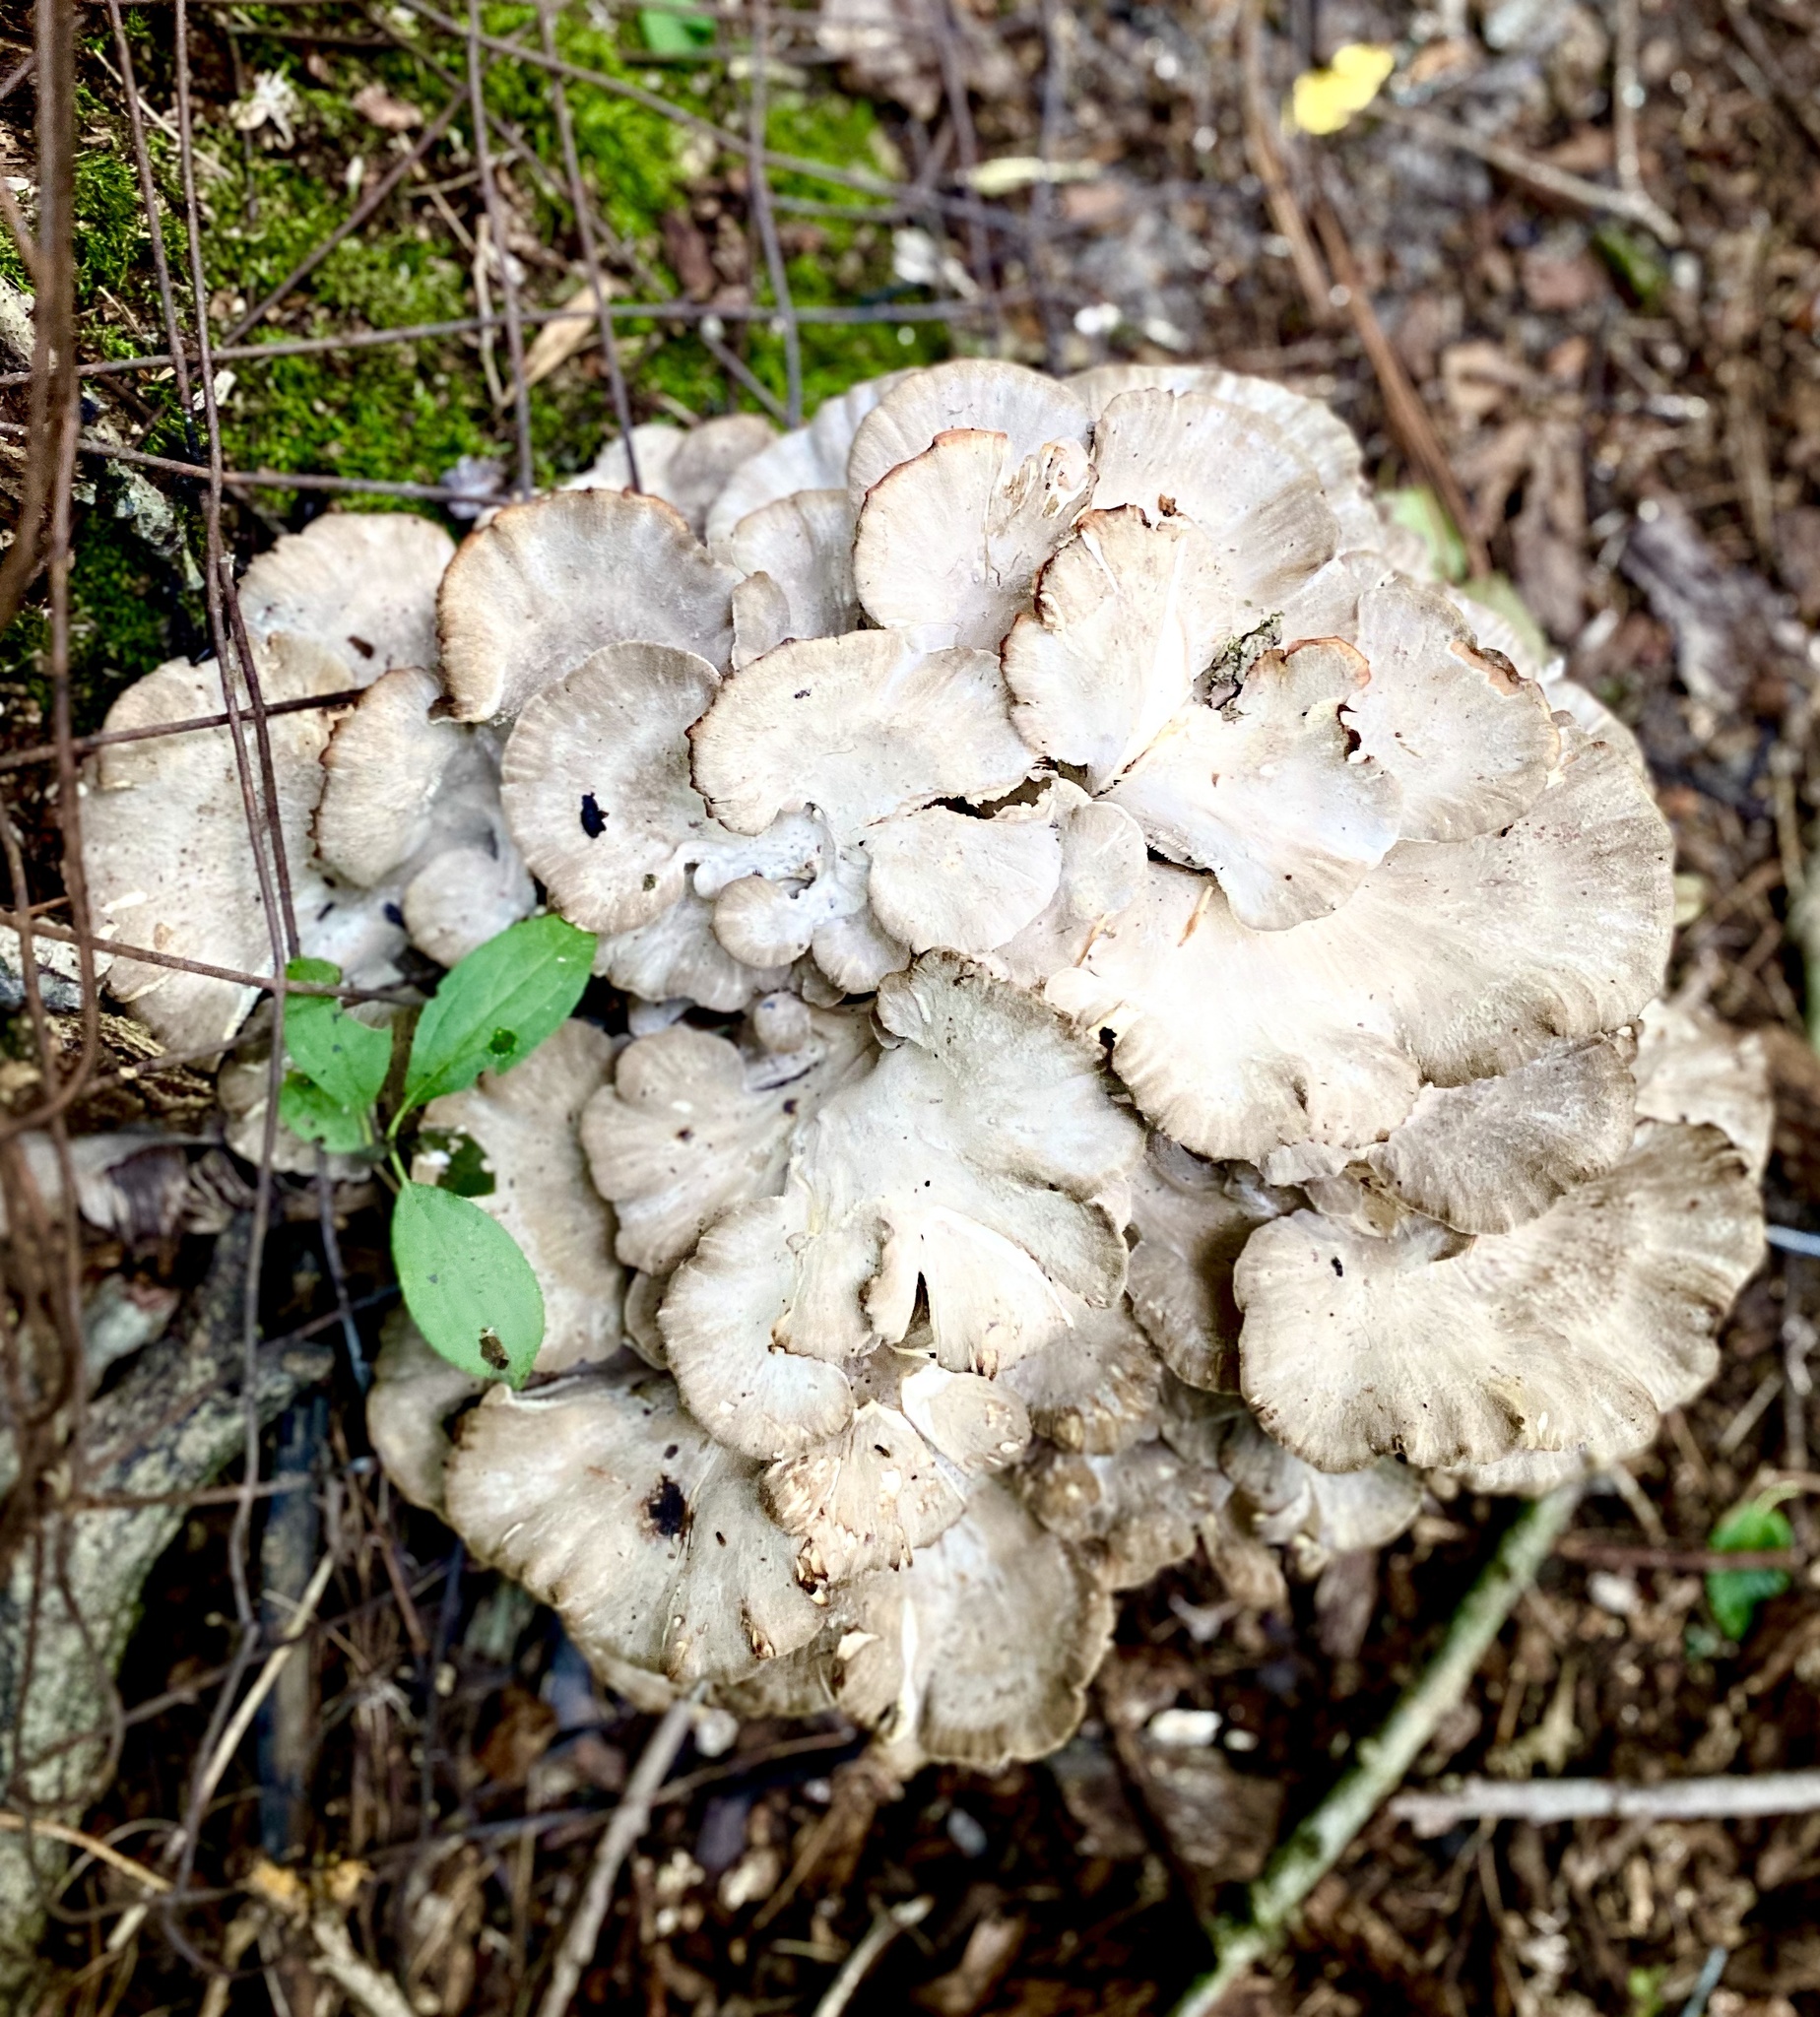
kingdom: Fungi
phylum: Basidiomycota
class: Agaricomycetes
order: Polyporales
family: Grifolaceae
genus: Grifola
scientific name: Grifola frondosa
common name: Hen of the woods
